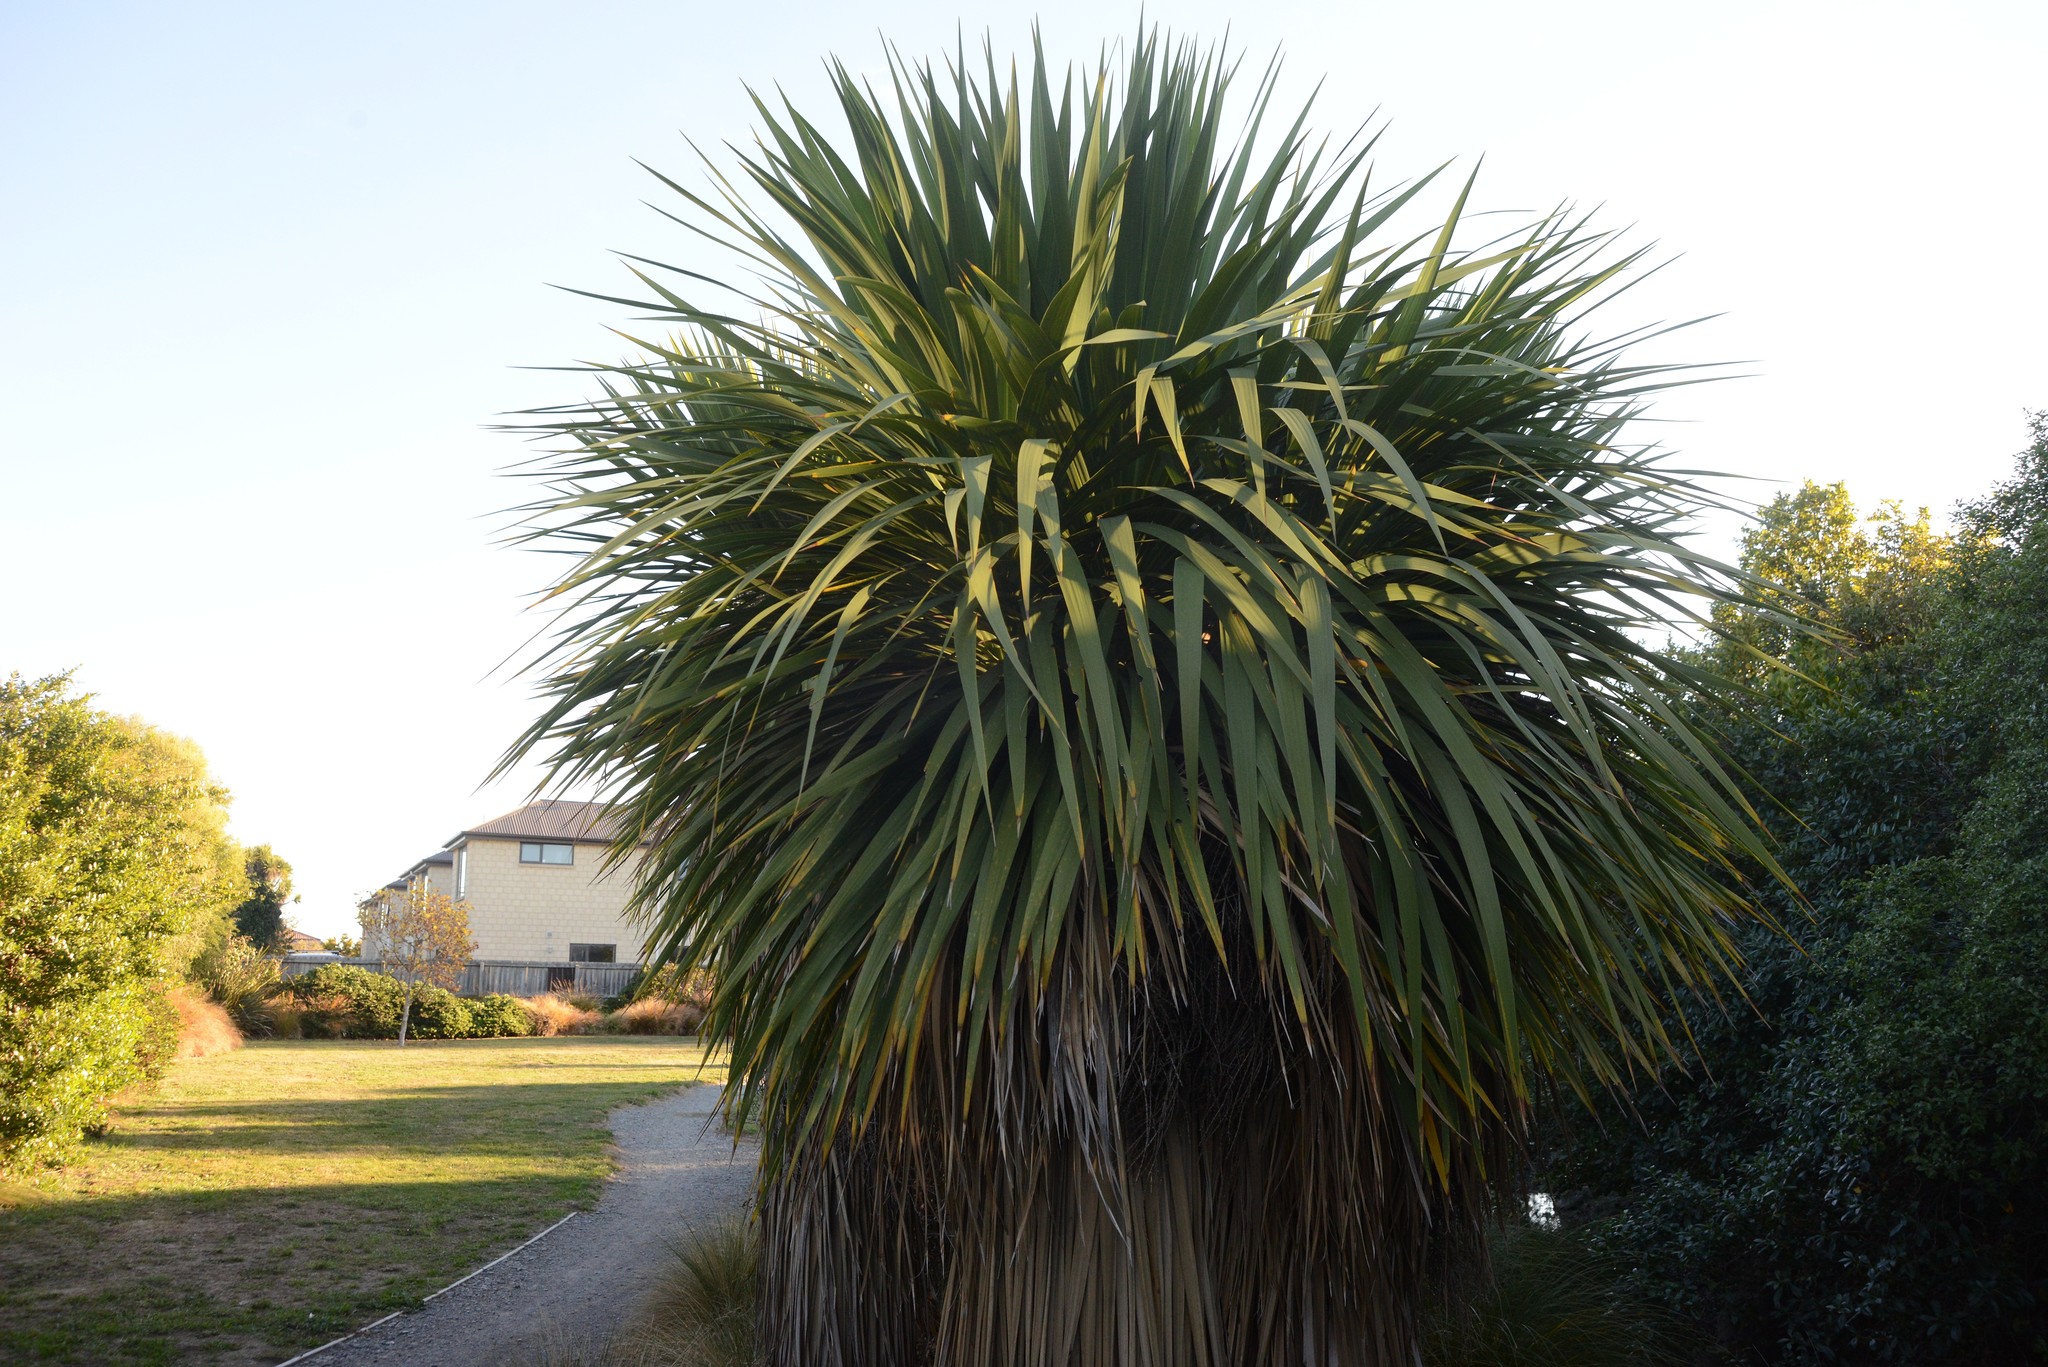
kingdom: Plantae
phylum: Tracheophyta
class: Liliopsida
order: Asparagales
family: Asparagaceae
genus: Cordyline
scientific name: Cordyline australis
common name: Cabbage-palm
